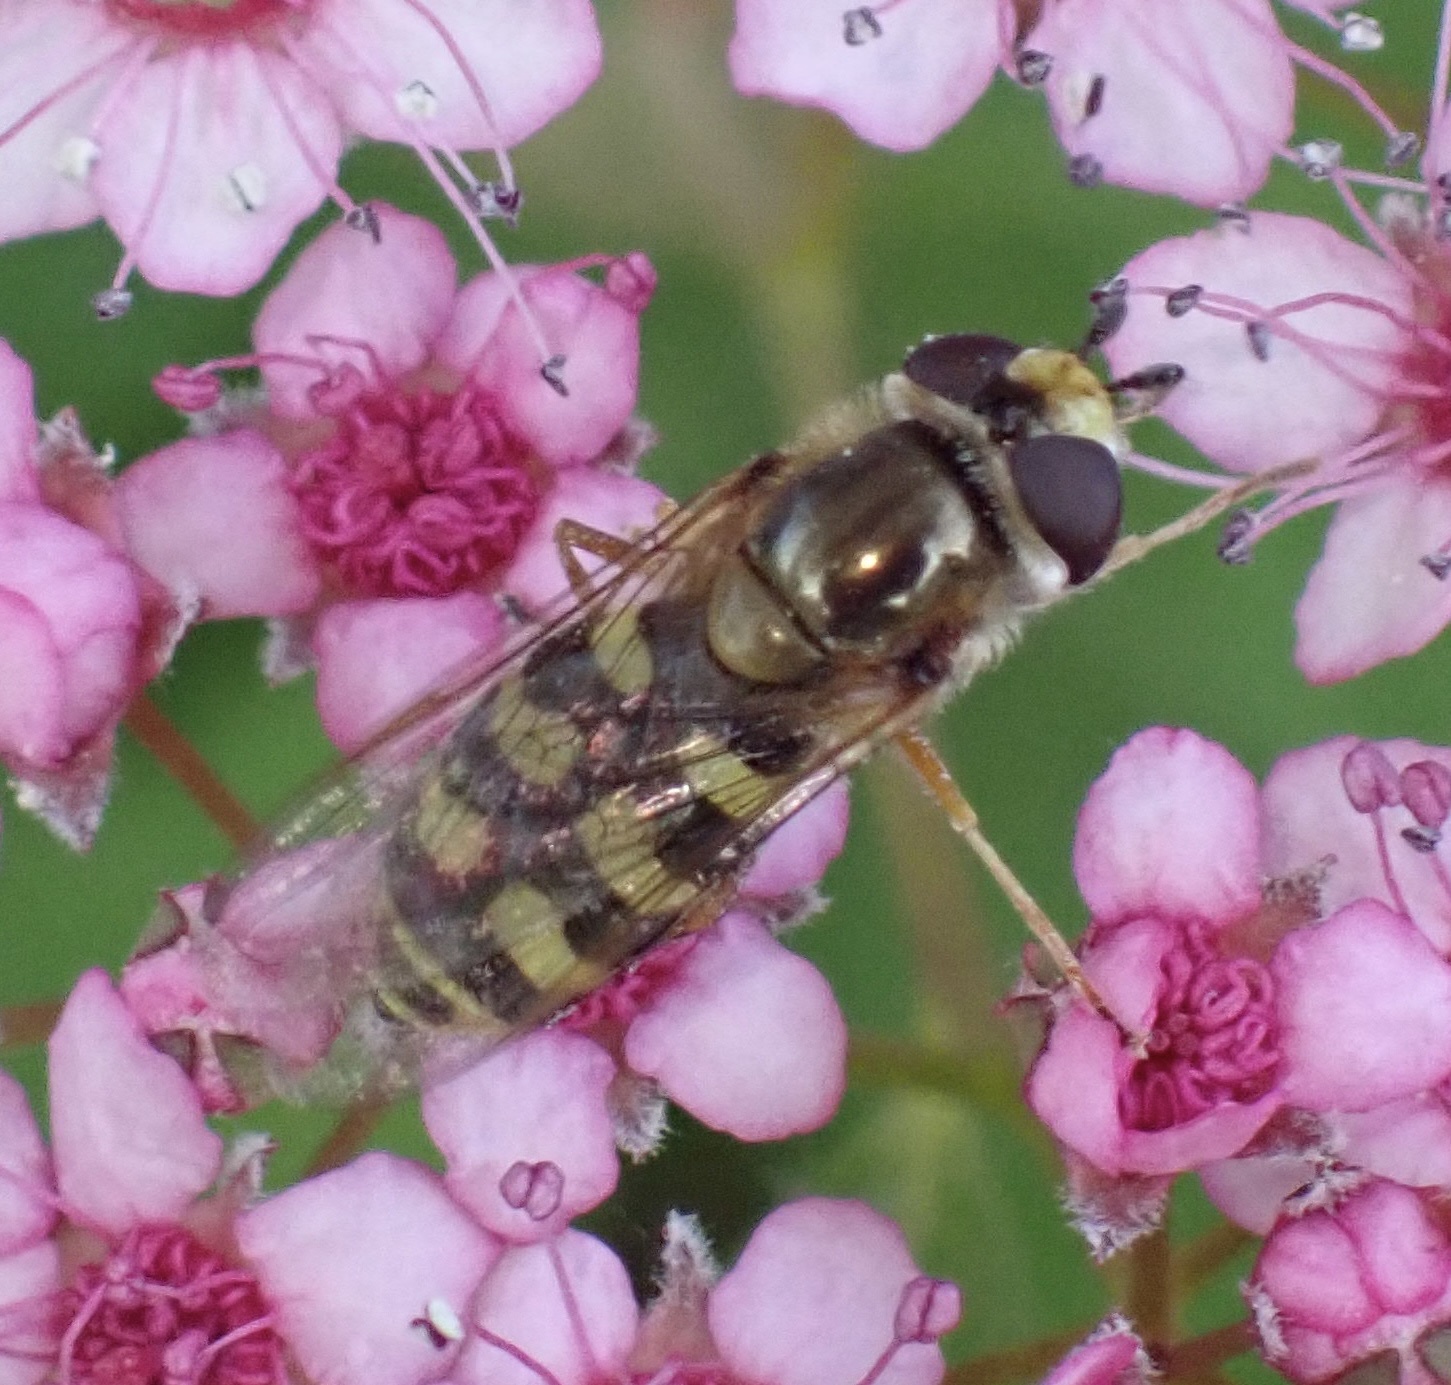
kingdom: Animalia
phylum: Arthropoda
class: Insecta
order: Diptera
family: Syrphidae
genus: Eupeodes
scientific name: Eupeodes corollae
